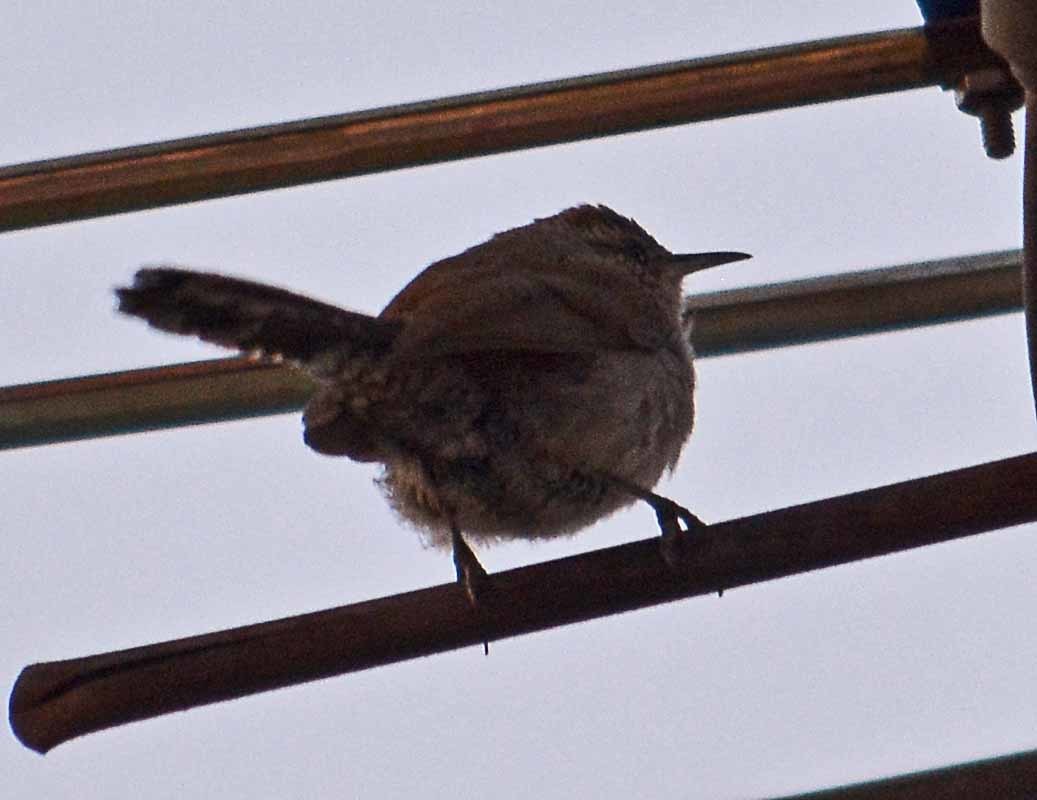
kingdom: Animalia
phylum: Chordata
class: Aves
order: Passeriformes
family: Troglodytidae
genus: Thryomanes
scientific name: Thryomanes bewickii
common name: Bewick's wren
